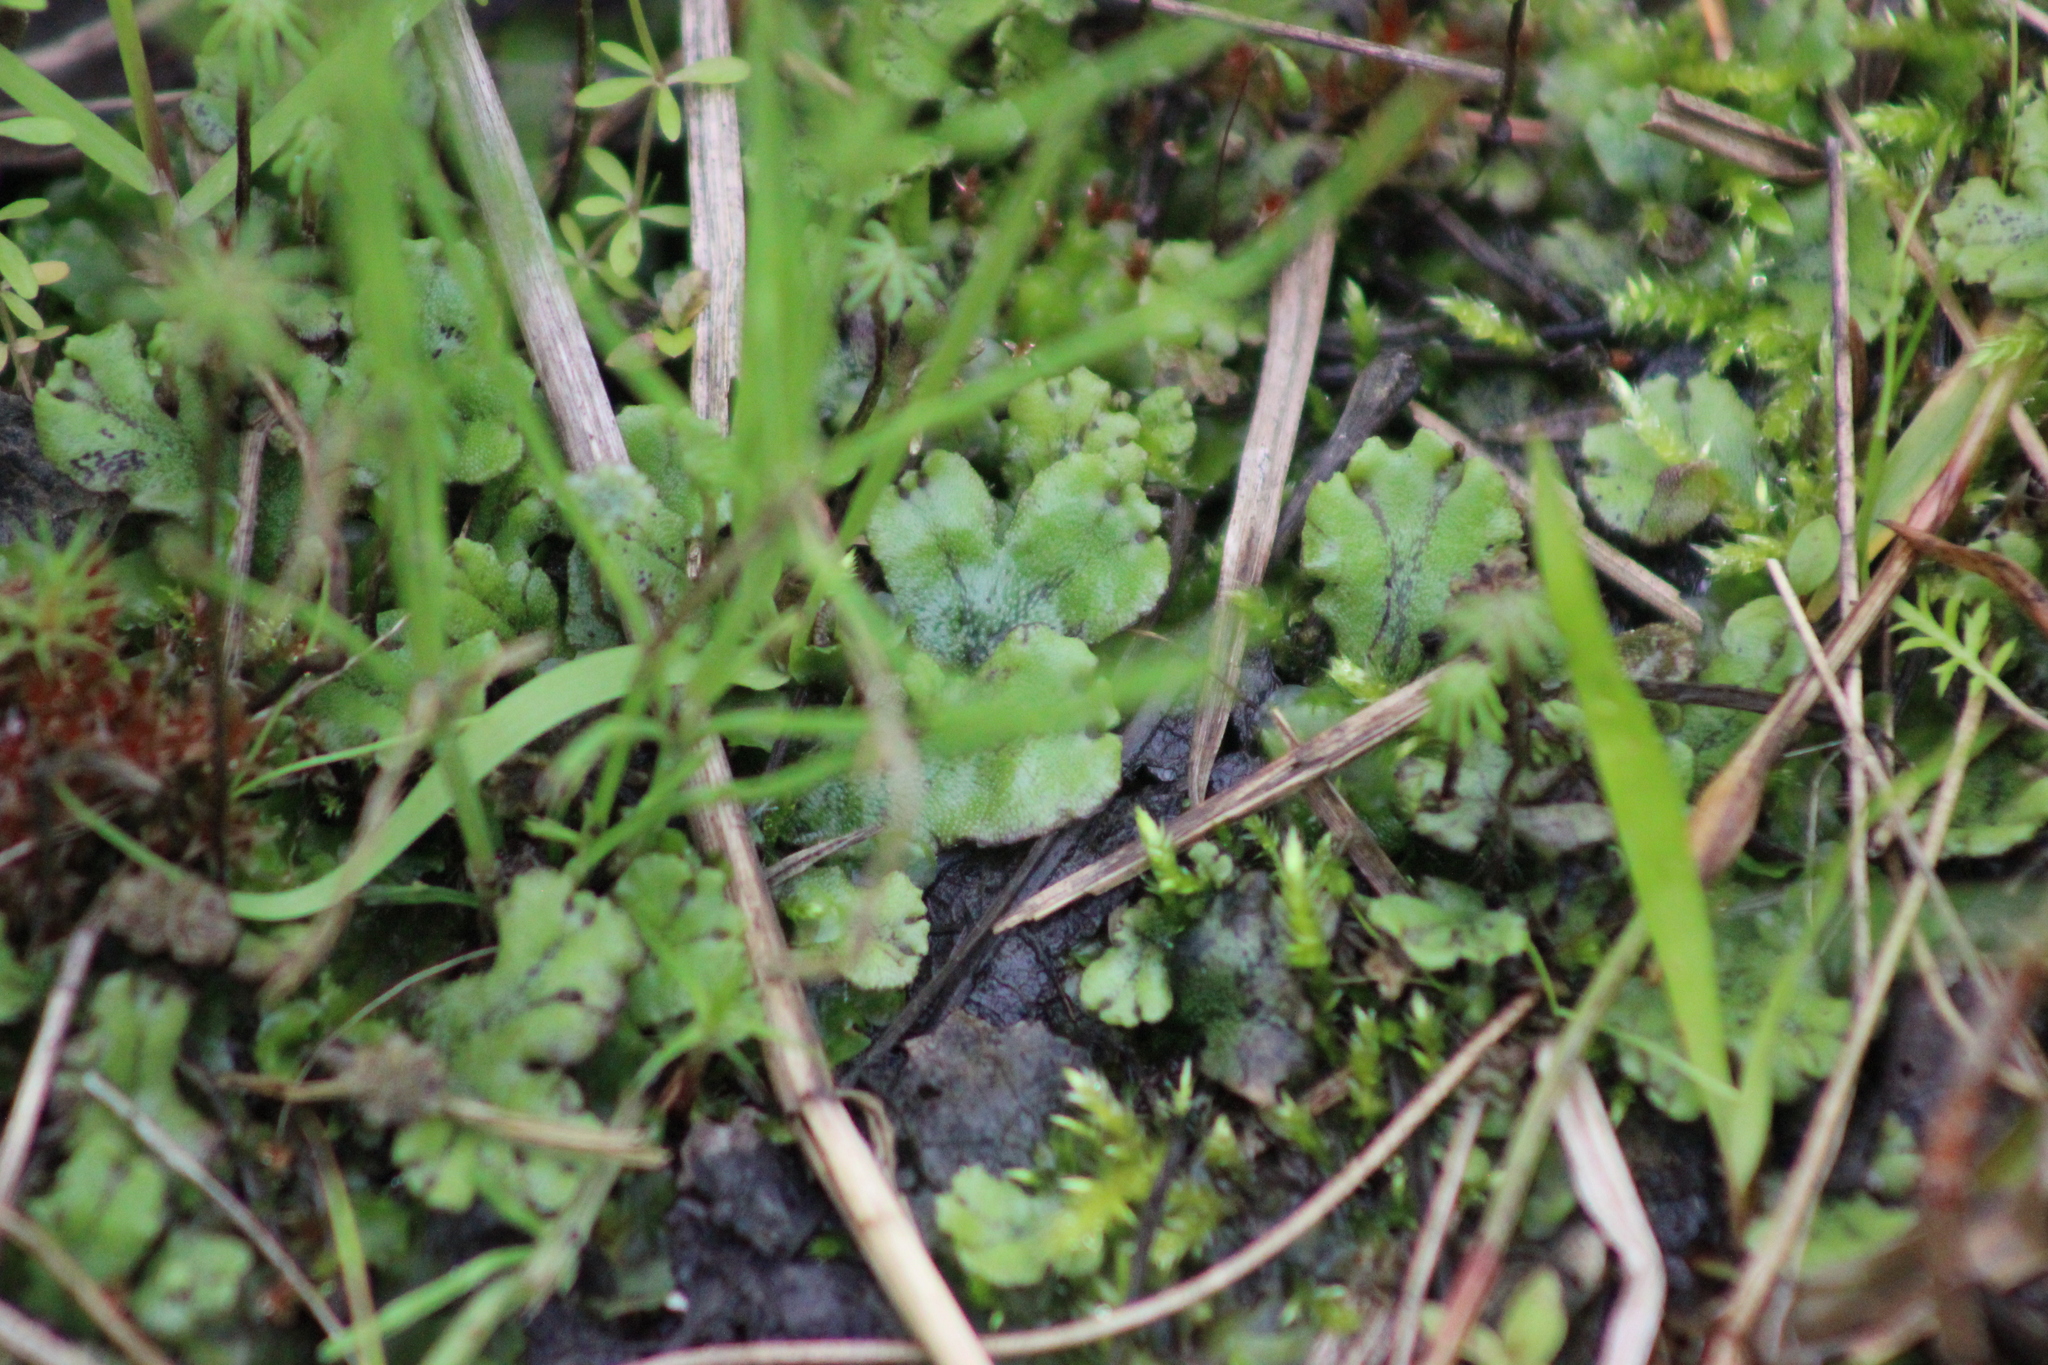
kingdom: Plantae
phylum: Marchantiophyta
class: Marchantiopsida
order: Marchantiales
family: Marchantiaceae
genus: Marchantia
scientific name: Marchantia polymorpha
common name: Common liverwort
